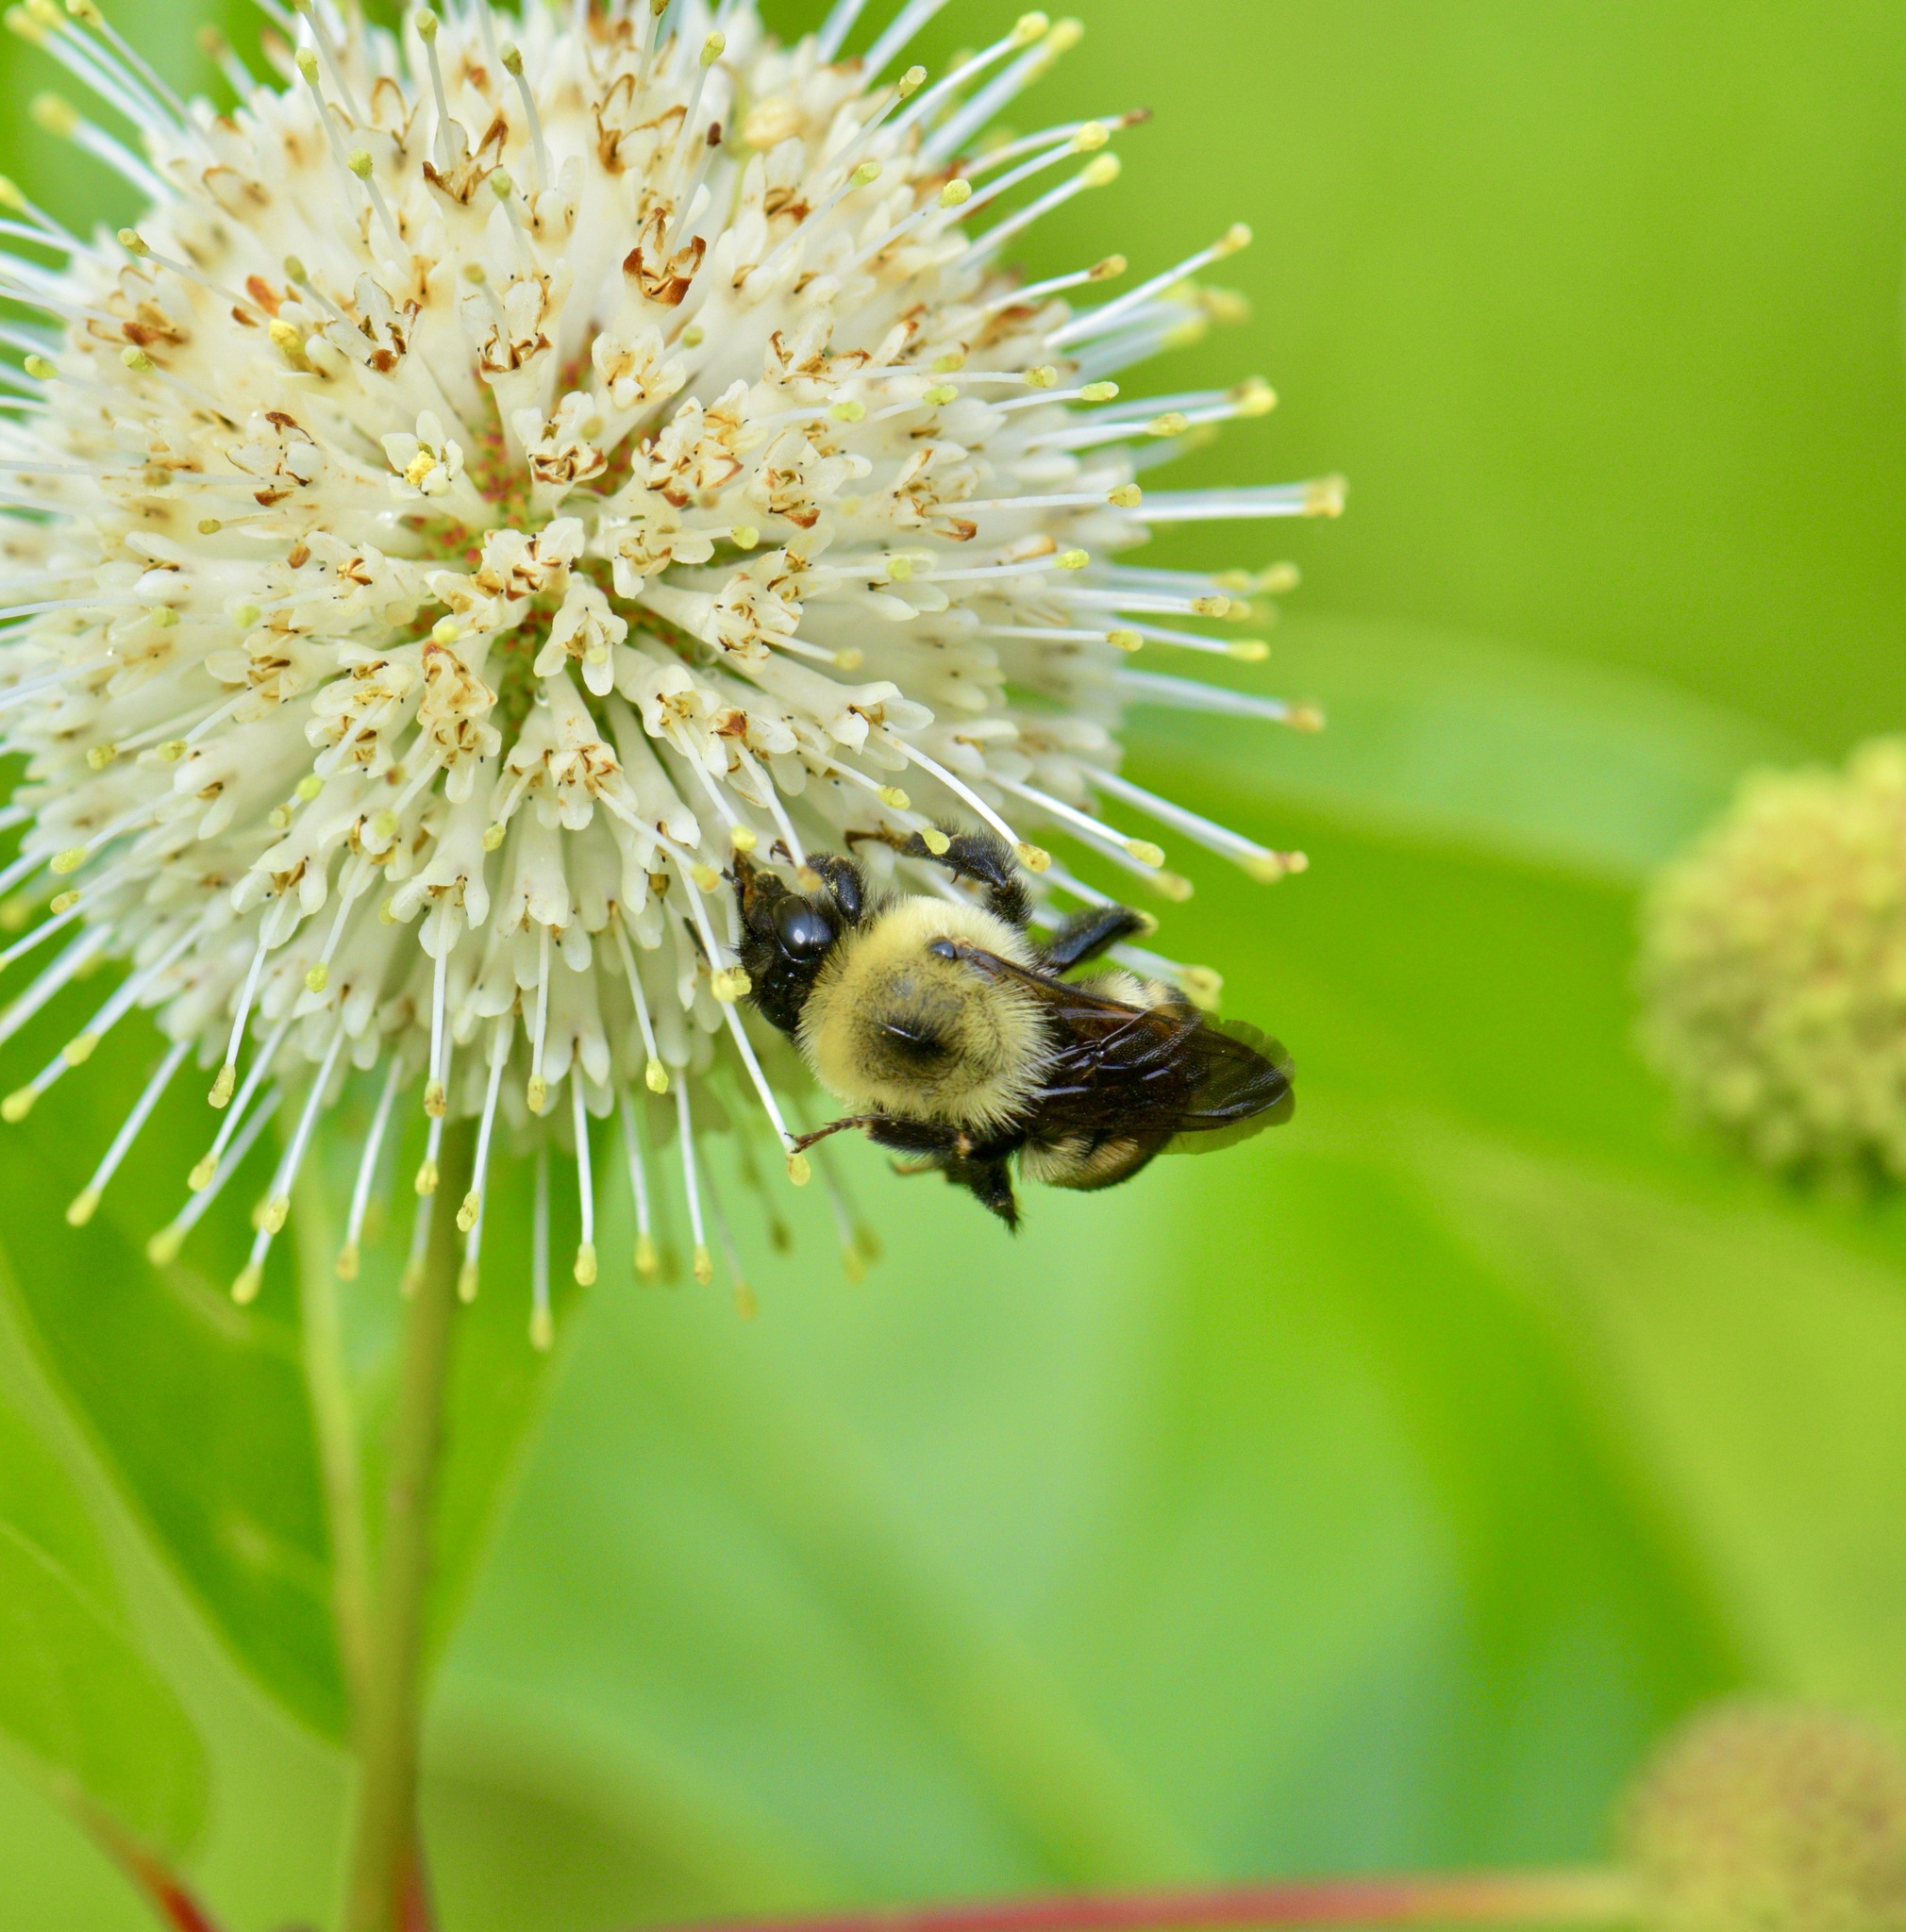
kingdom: Animalia
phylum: Arthropoda
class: Insecta
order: Hymenoptera
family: Apidae
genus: Bombus
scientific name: Bombus griseocollis
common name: Brown-belted bumble bee
